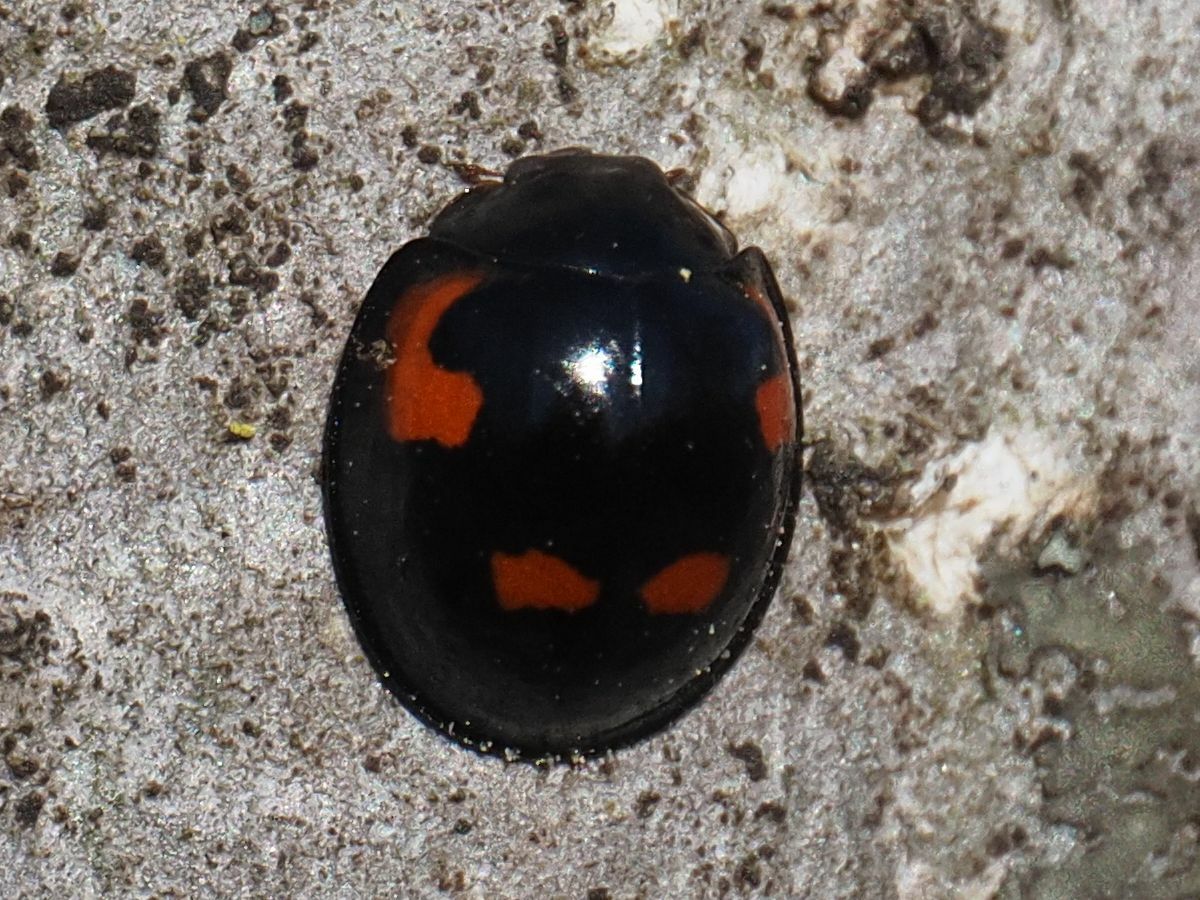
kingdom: Animalia
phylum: Arthropoda
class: Insecta
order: Coleoptera
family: Coccinellidae
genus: Brumus
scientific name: Brumus quadripustulatus
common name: Ladybird beetle
